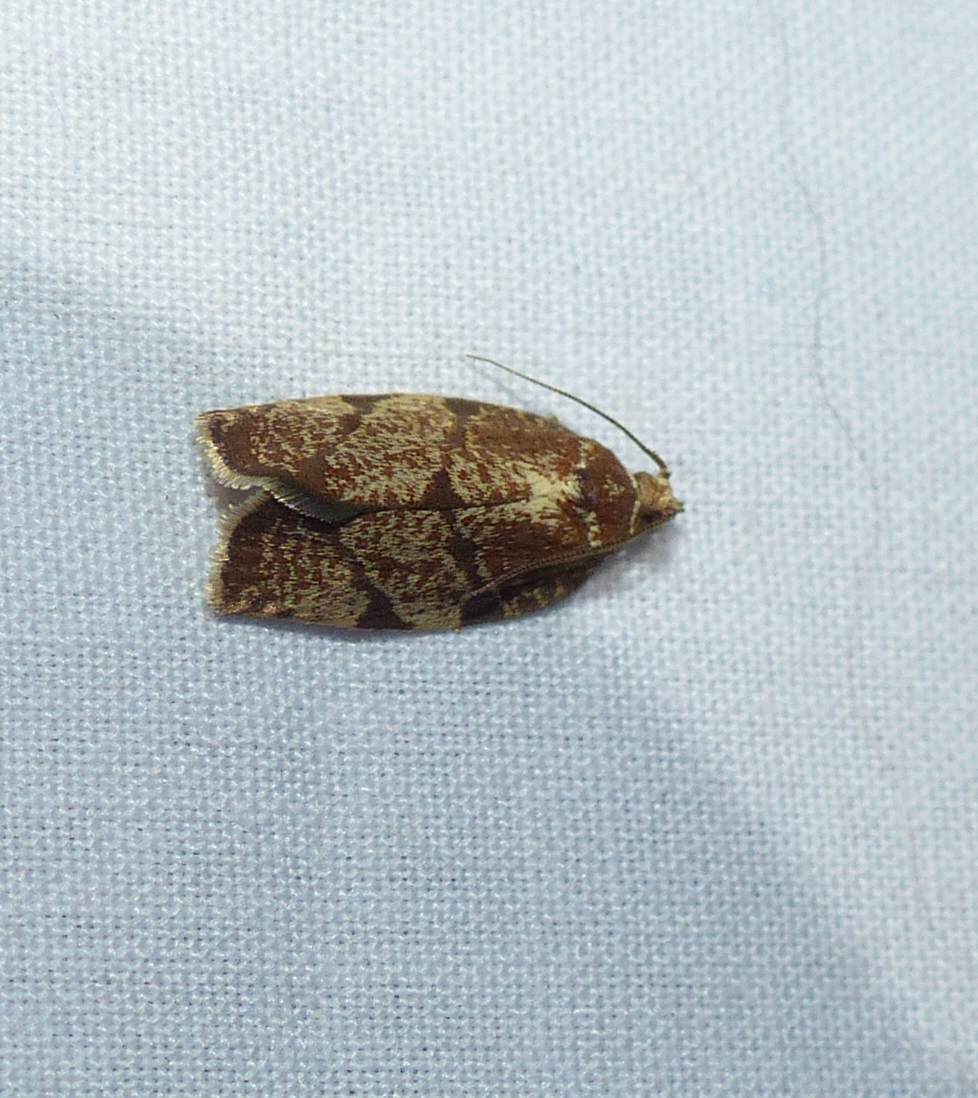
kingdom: Animalia
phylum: Arthropoda
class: Insecta
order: Lepidoptera
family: Tortricidae
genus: Argyrotaenia
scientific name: Argyrotaenia juglandana
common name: Hickory leafroller moth
